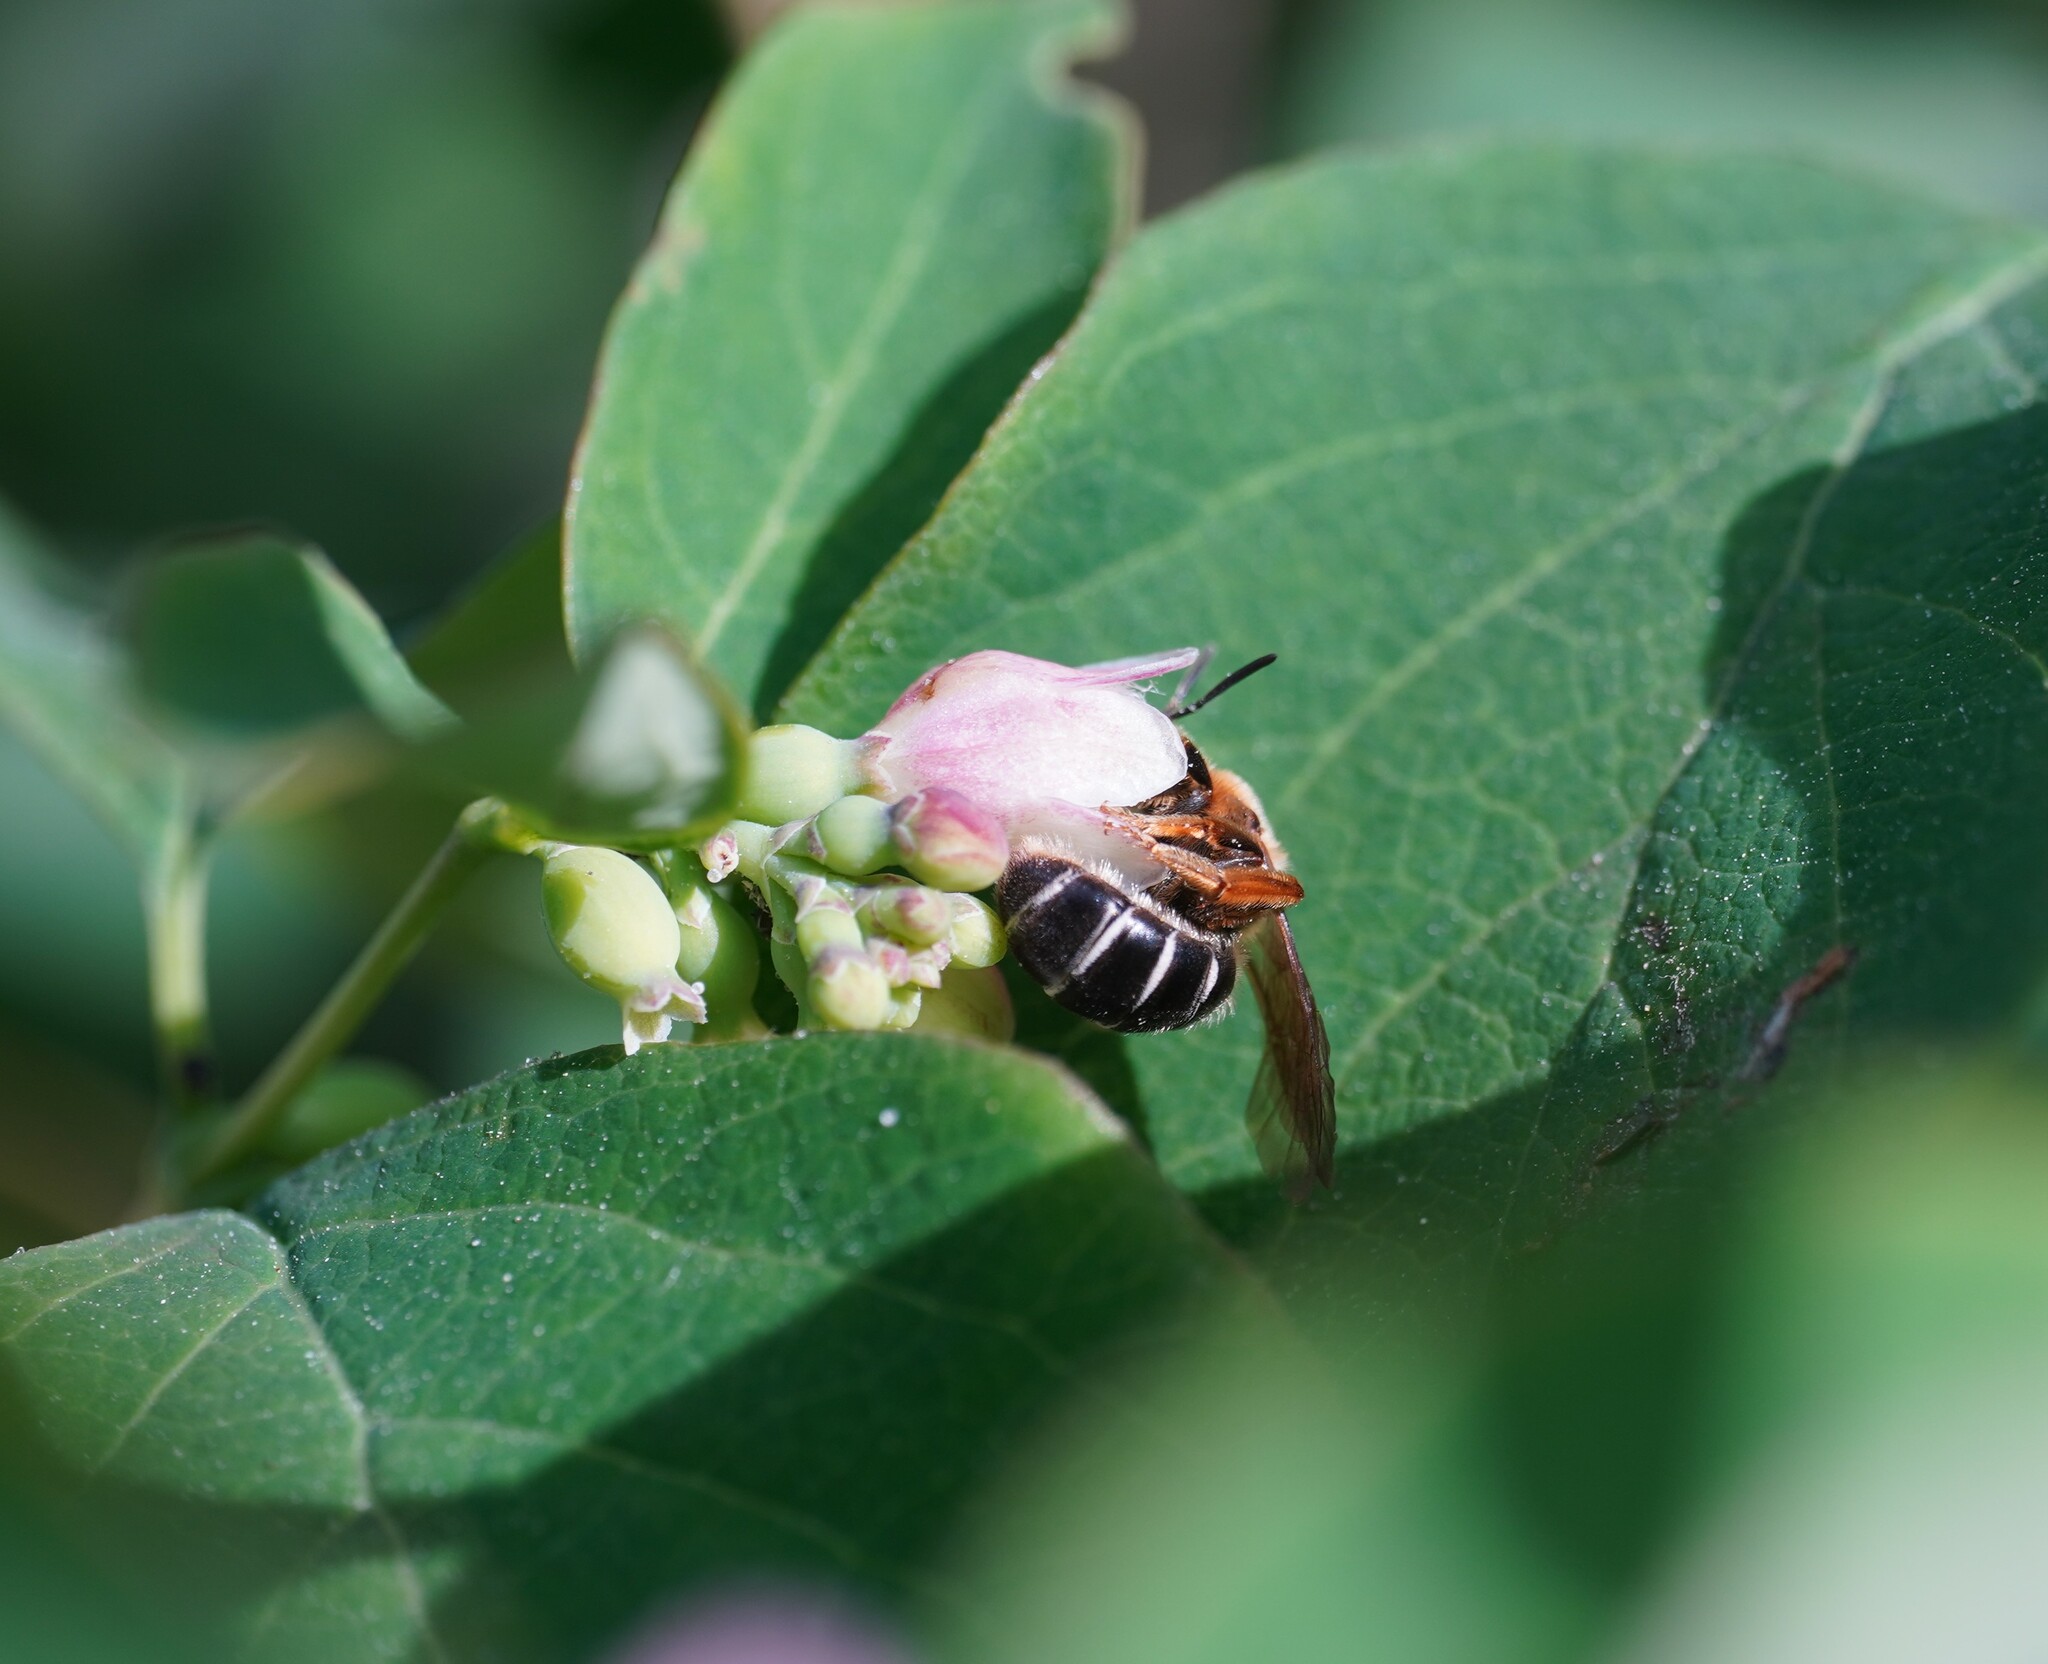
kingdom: Animalia
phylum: Arthropoda
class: Insecta
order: Hymenoptera
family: Halictidae
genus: Halictus
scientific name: Halictus rubicundus
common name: Orange-legged furrow bee
